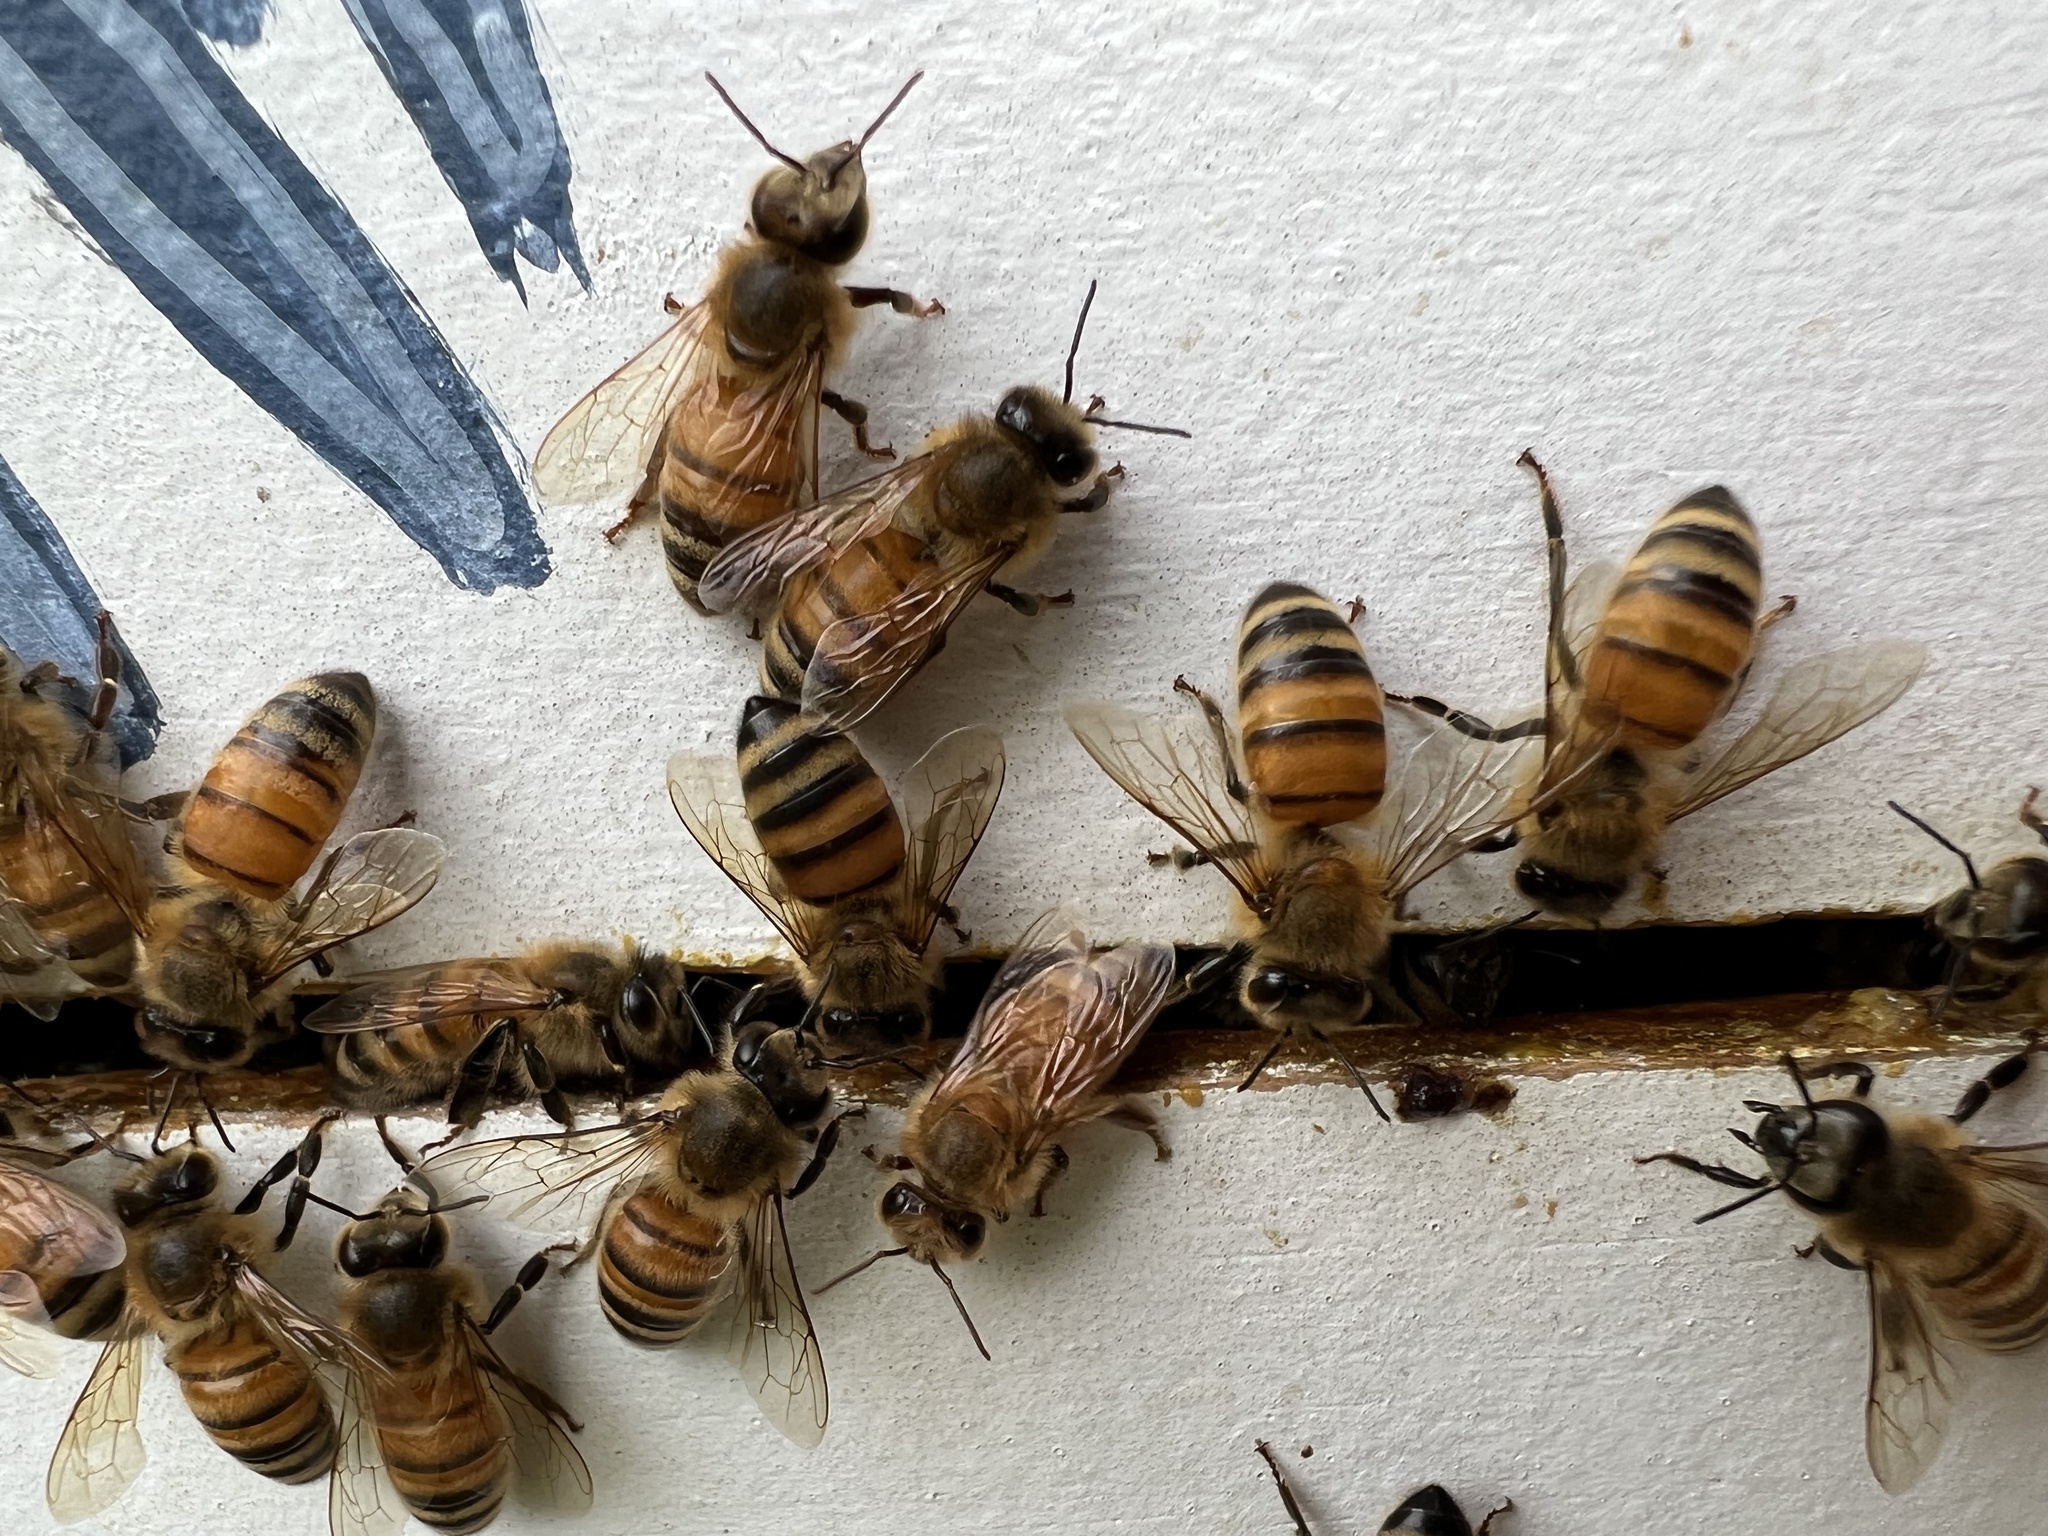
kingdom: Animalia
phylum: Arthropoda
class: Insecta
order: Hymenoptera
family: Apidae
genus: Apis
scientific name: Apis mellifera
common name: Honey bee
